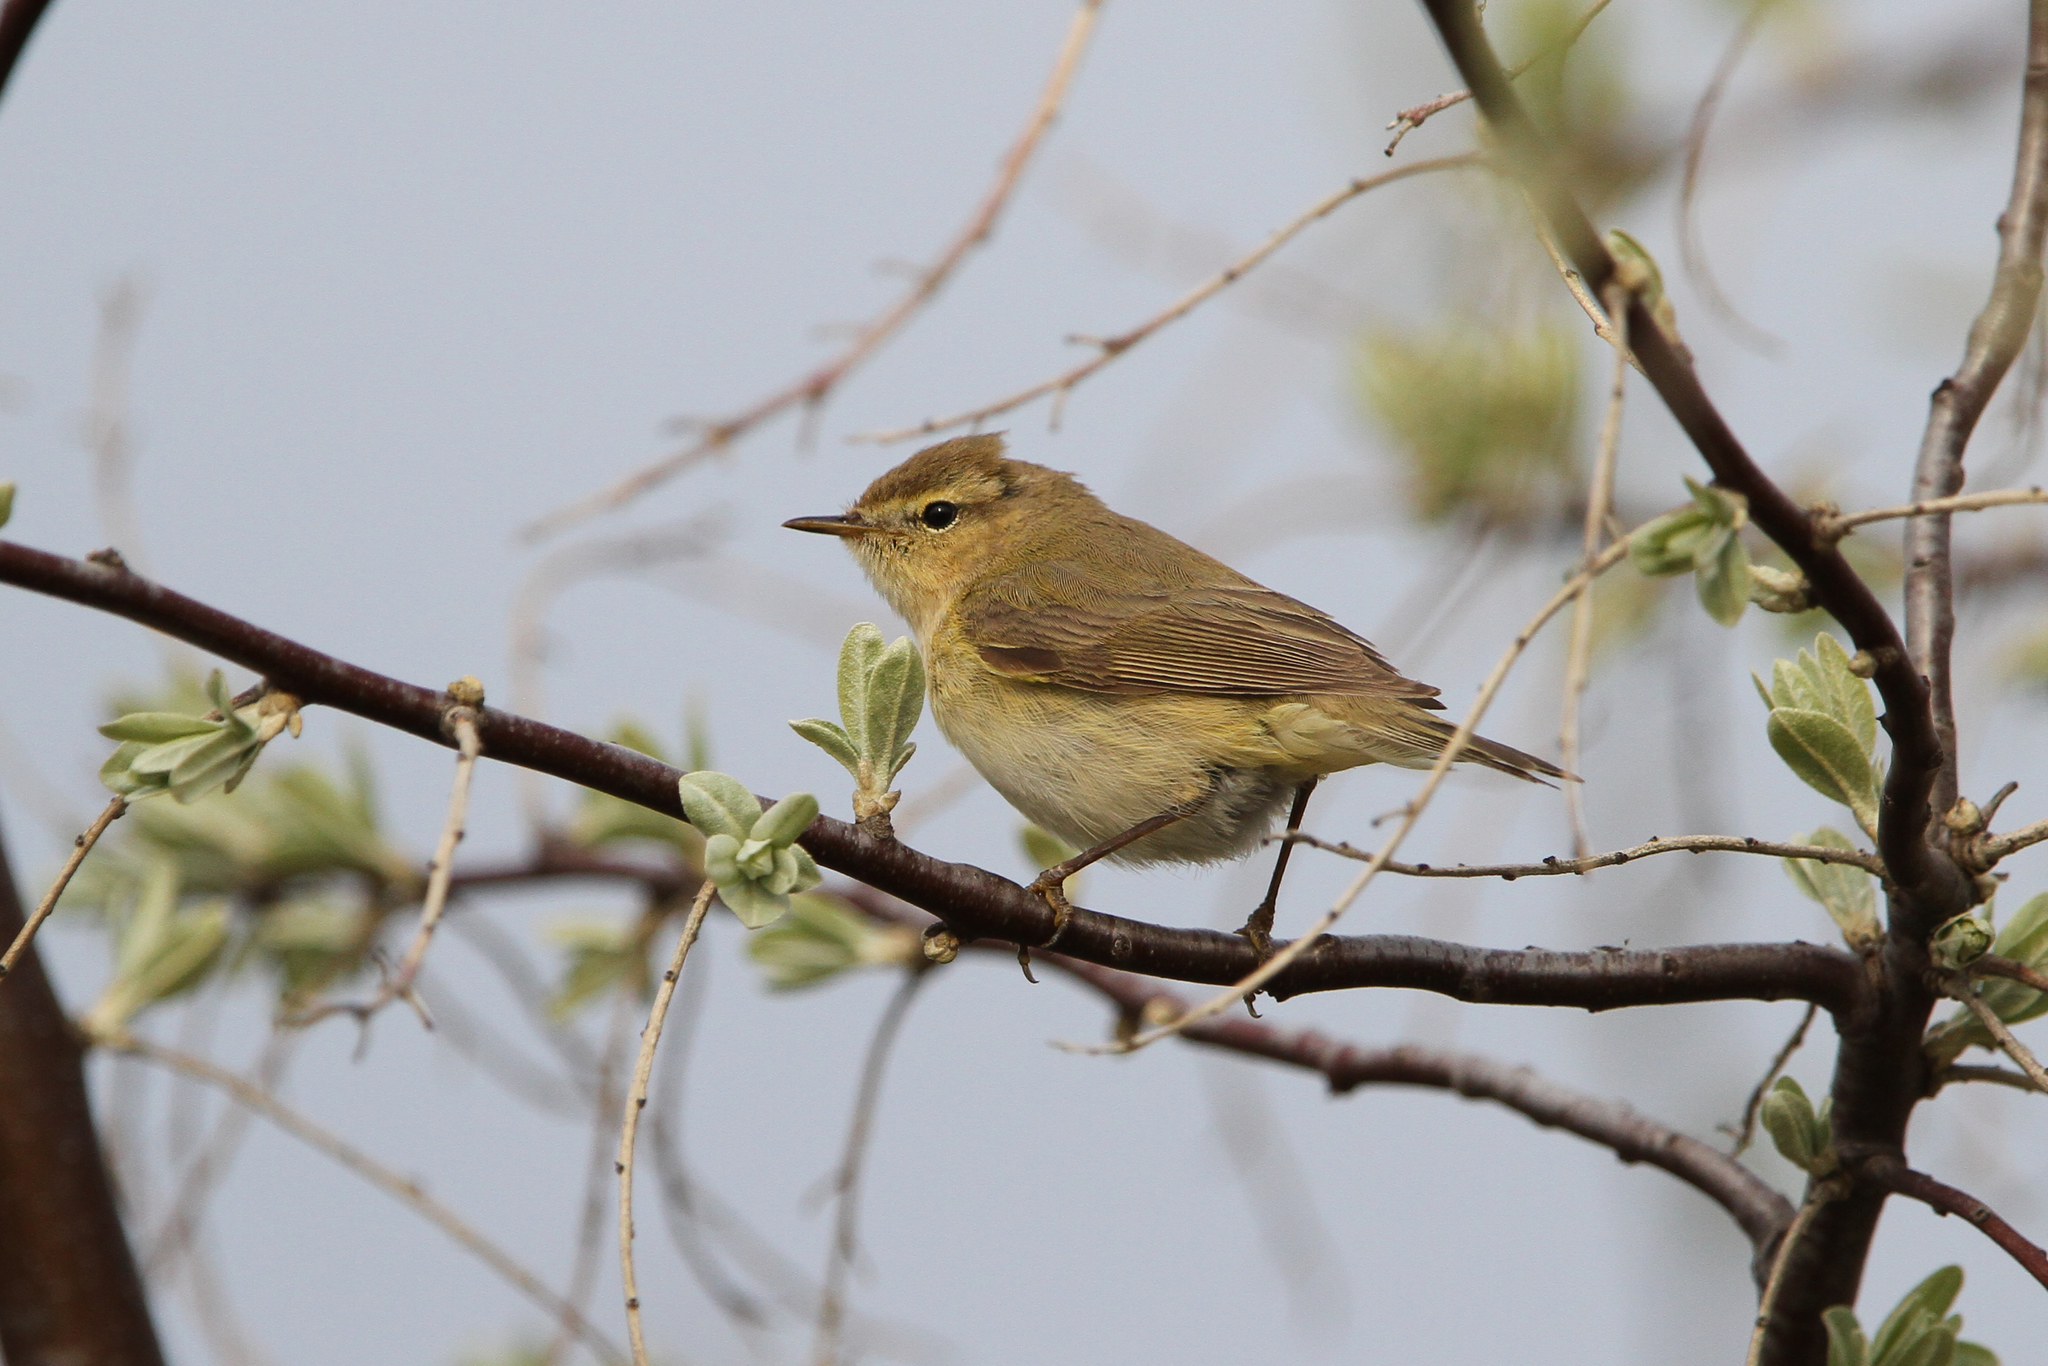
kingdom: Animalia
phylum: Chordata
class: Aves
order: Passeriformes
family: Phylloscopidae
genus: Phylloscopus
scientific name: Phylloscopus collybita
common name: Common chiffchaff
